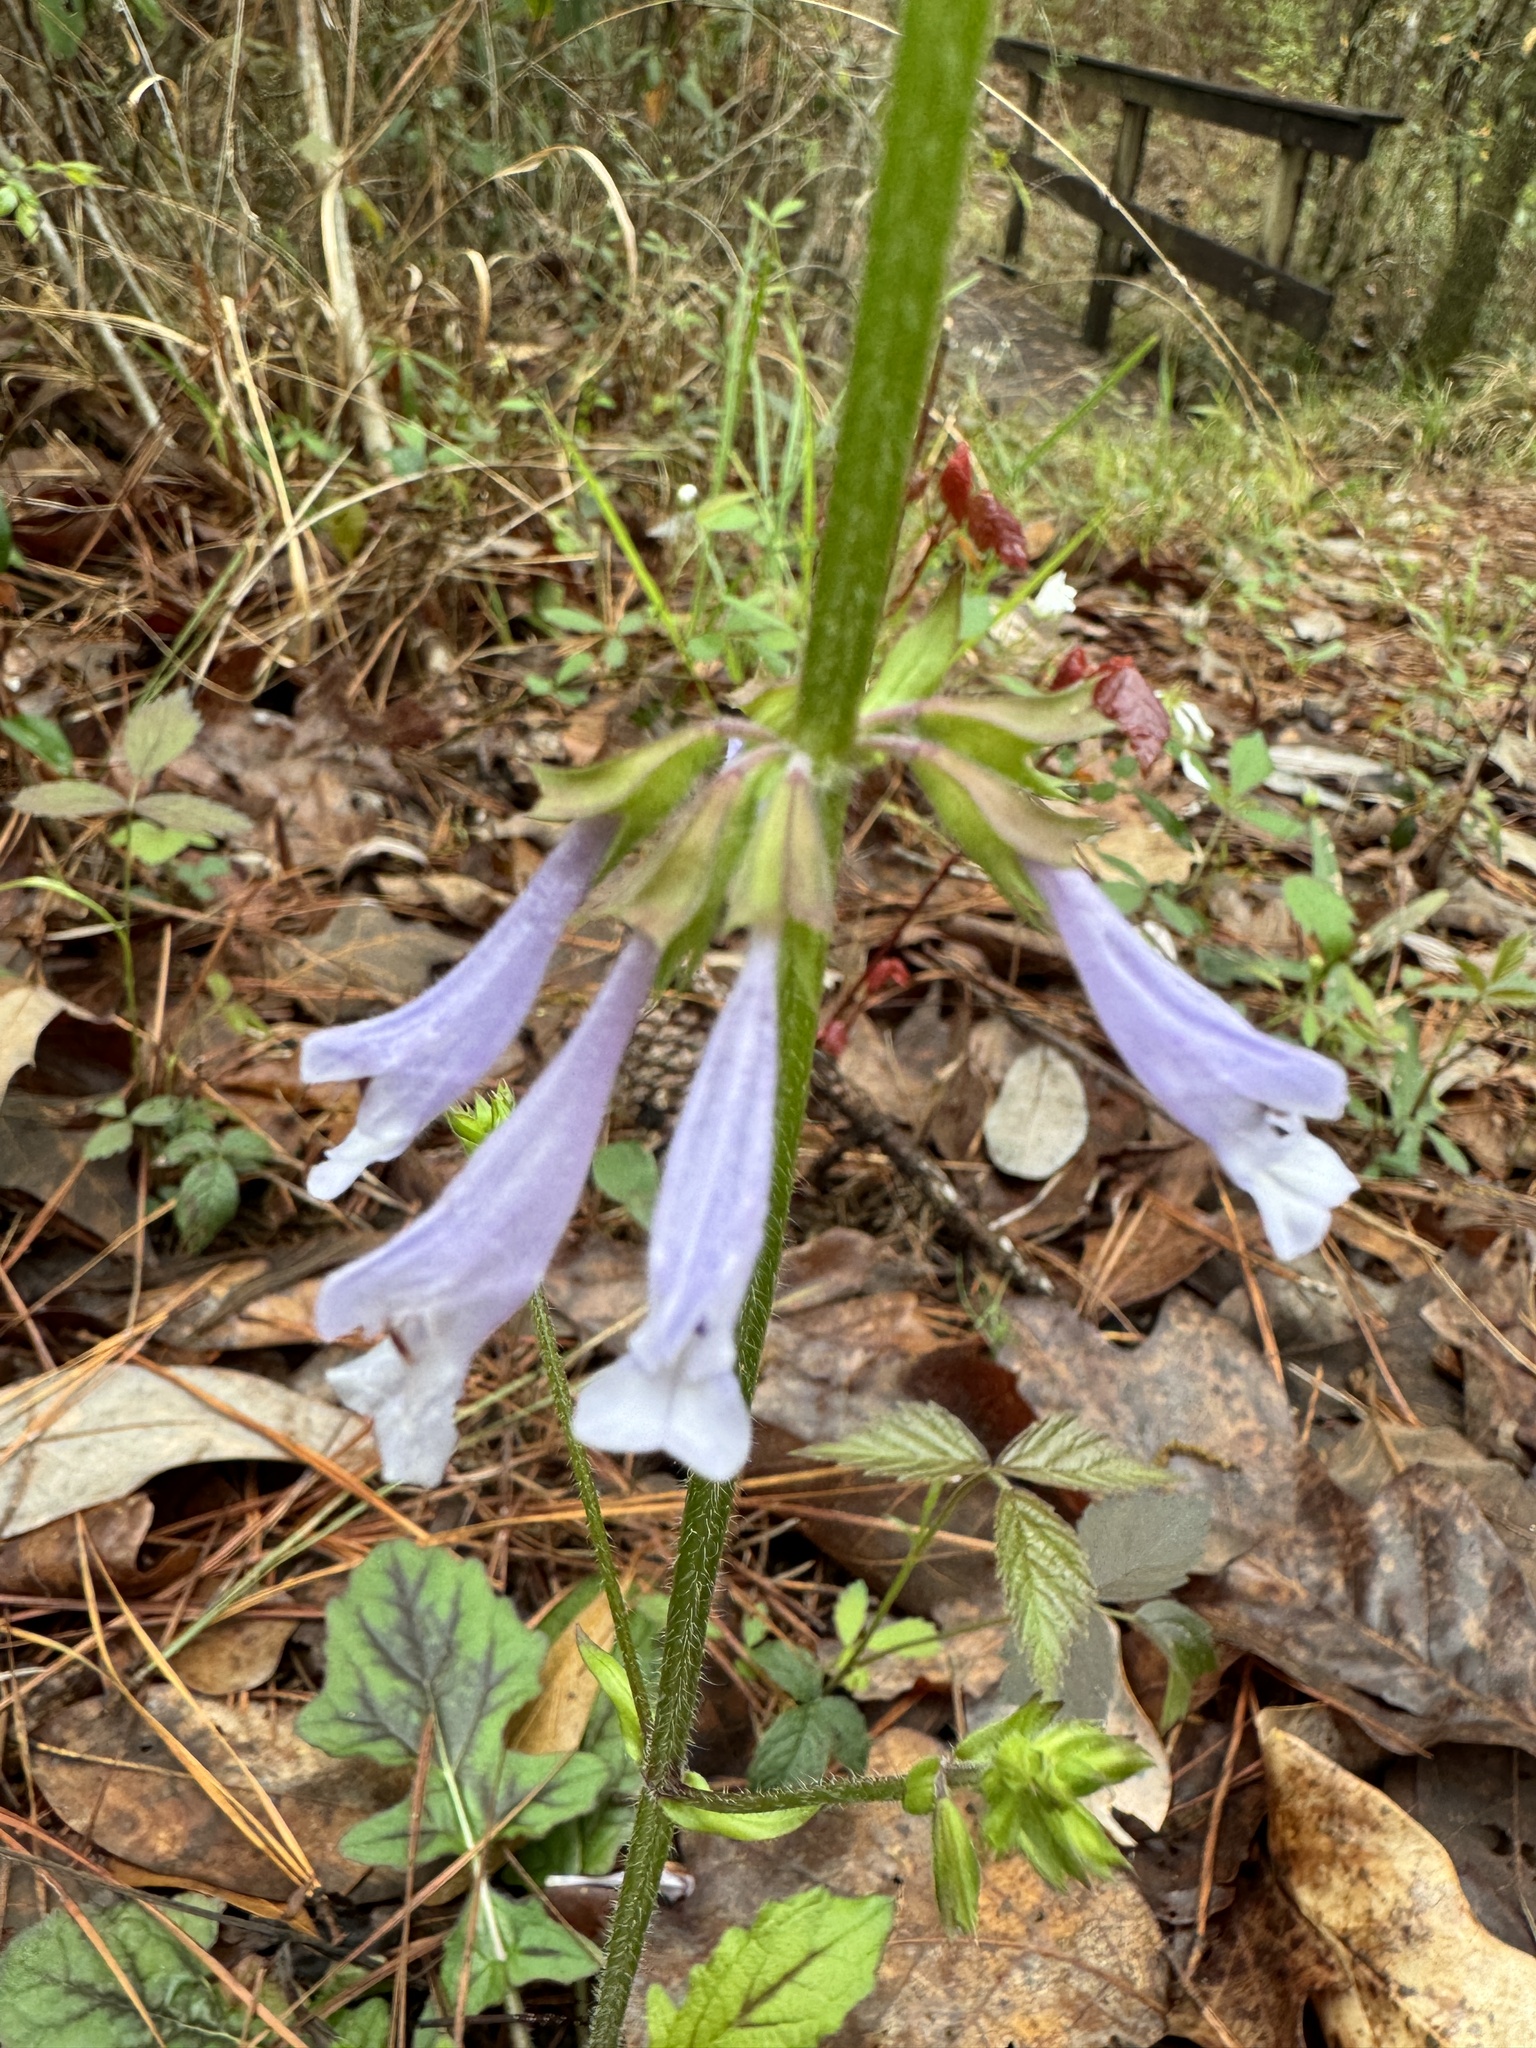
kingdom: Plantae
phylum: Tracheophyta
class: Magnoliopsida
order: Lamiales
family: Lamiaceae
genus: Salvia
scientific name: Salvia lyrata
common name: Cancerweed
